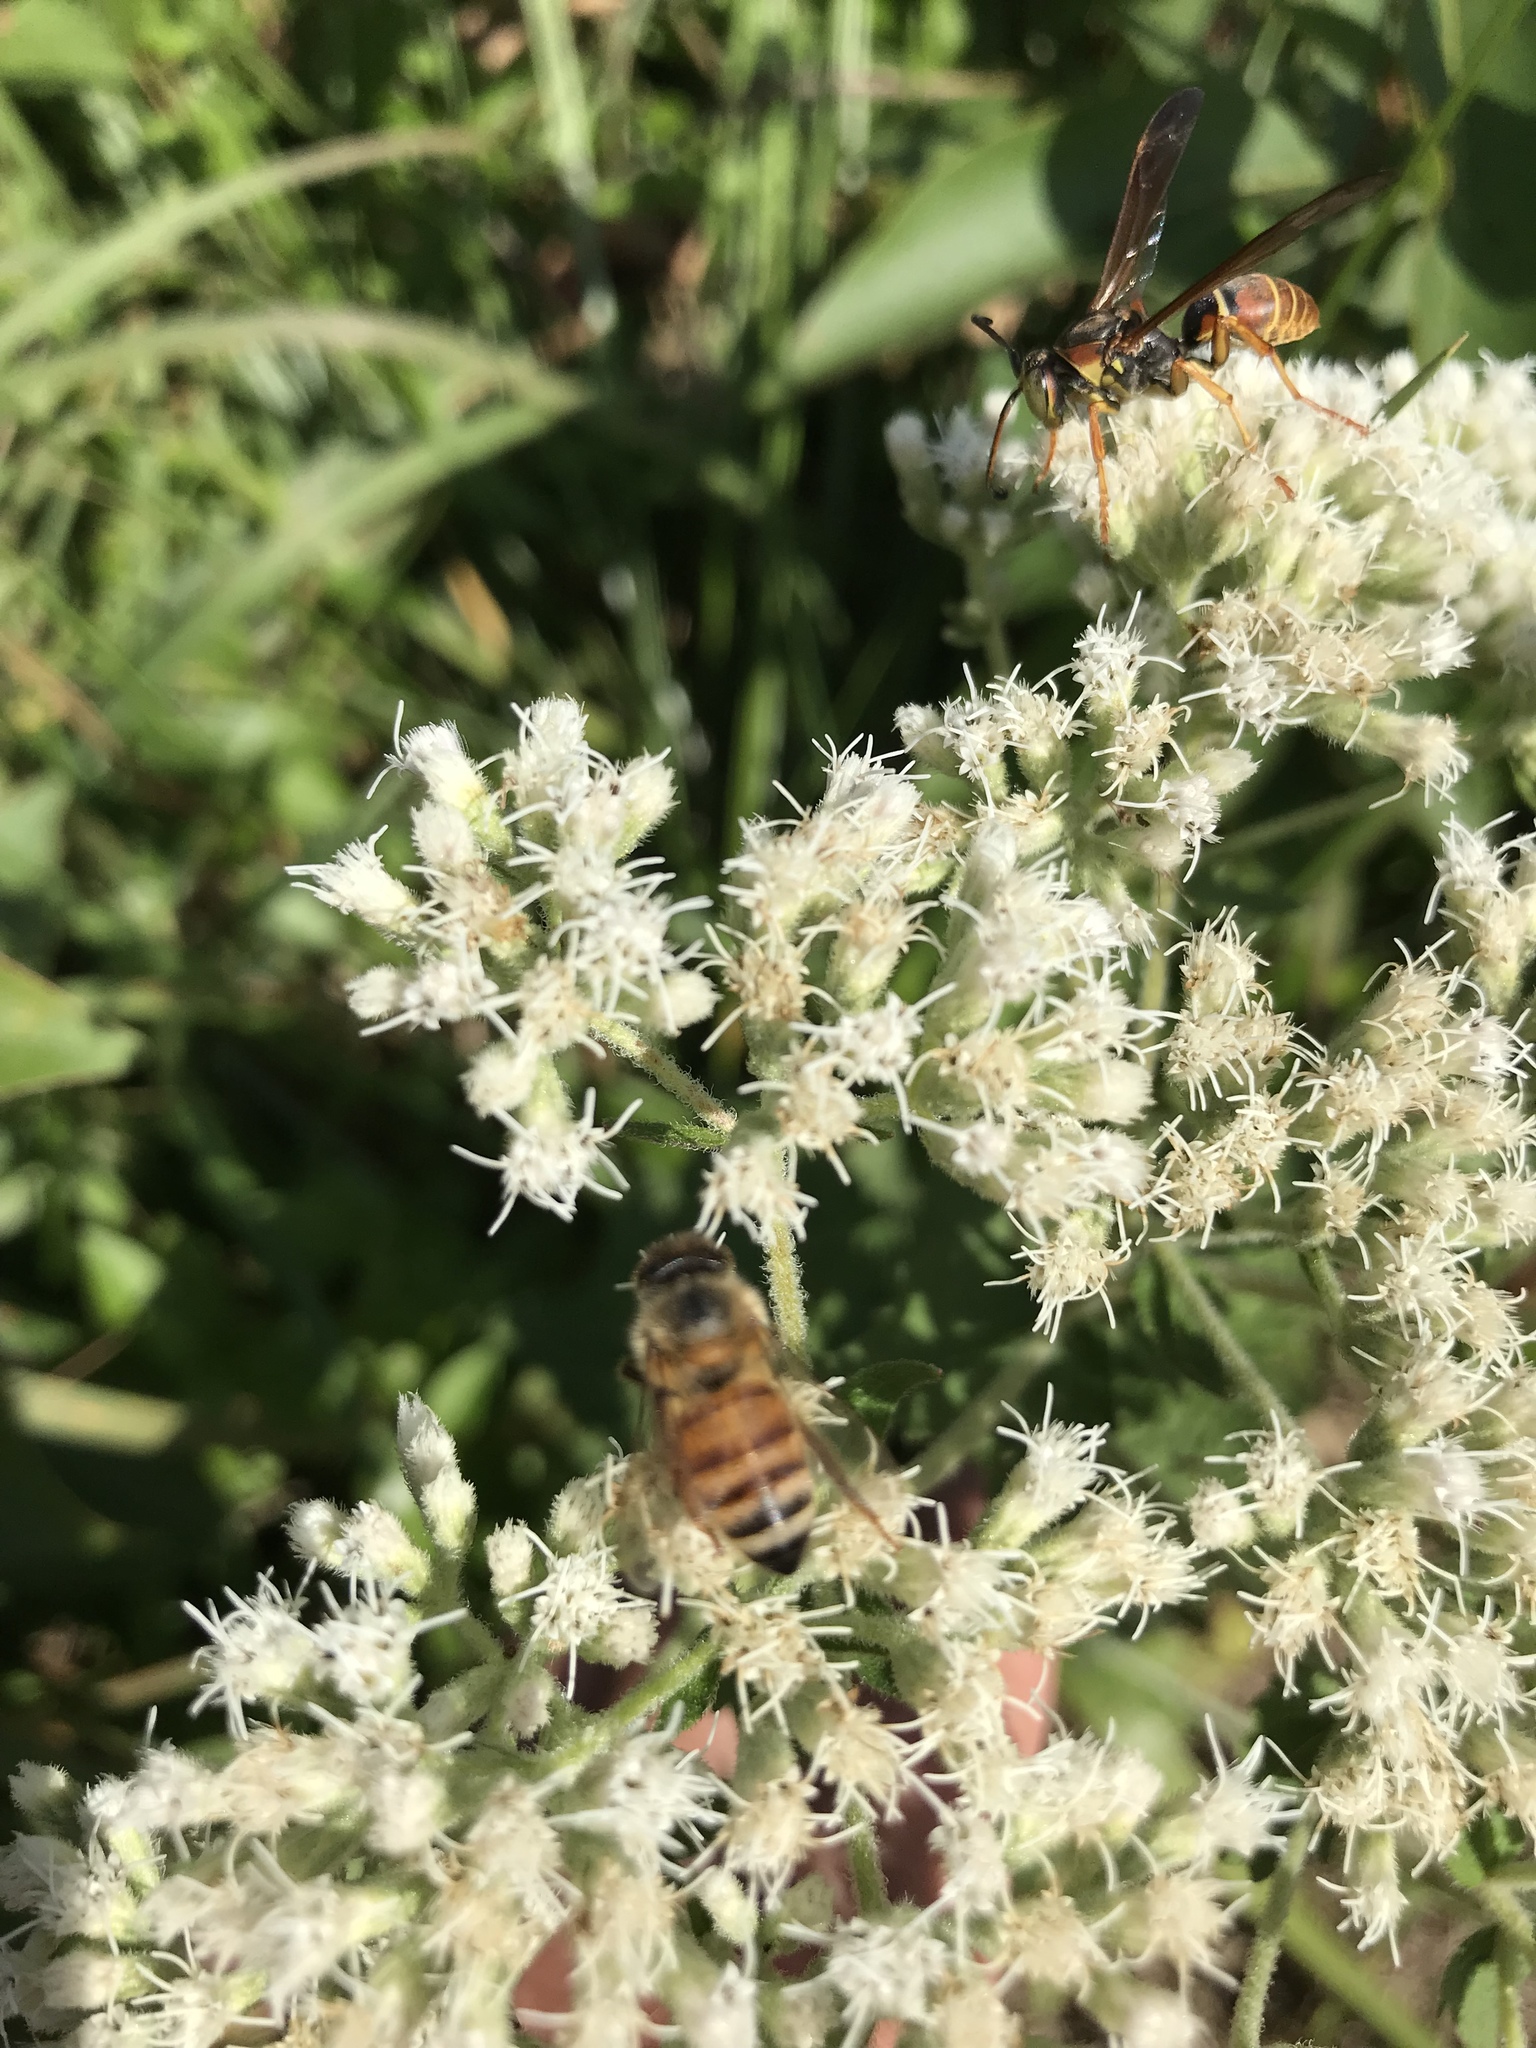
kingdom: Animalia
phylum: Arthropoda
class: Insecta
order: Hymenoptera
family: Apidae
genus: Apis
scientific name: Apis mellifera
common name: Honey bee
